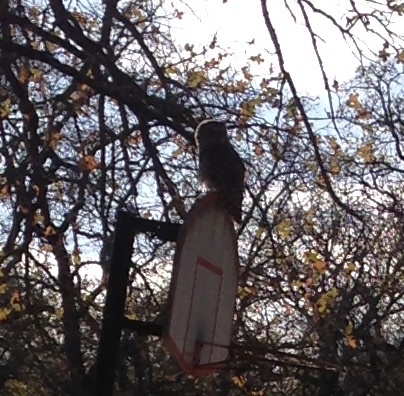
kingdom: Animalia
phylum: Chordata
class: Aves
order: Strigiformes
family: Strigidae
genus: Strix
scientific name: Strix varia
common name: Barred owl
